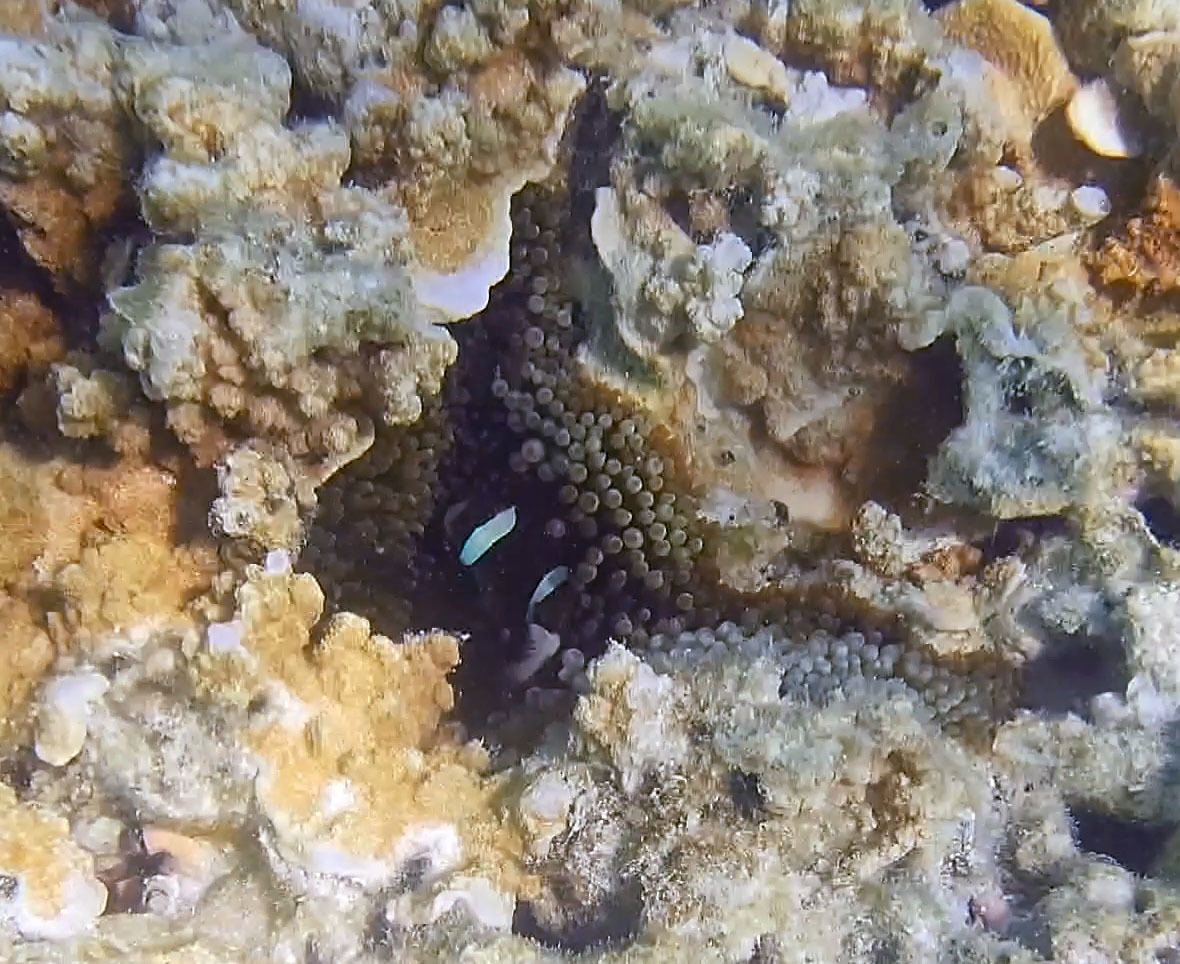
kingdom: Animalia
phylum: Cnidaria
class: Anthozoa
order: Actiniaria
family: Actiniidae
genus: Entacmaea
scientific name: Entacmaea quadricolor
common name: Bulb tentacle sea anemone
